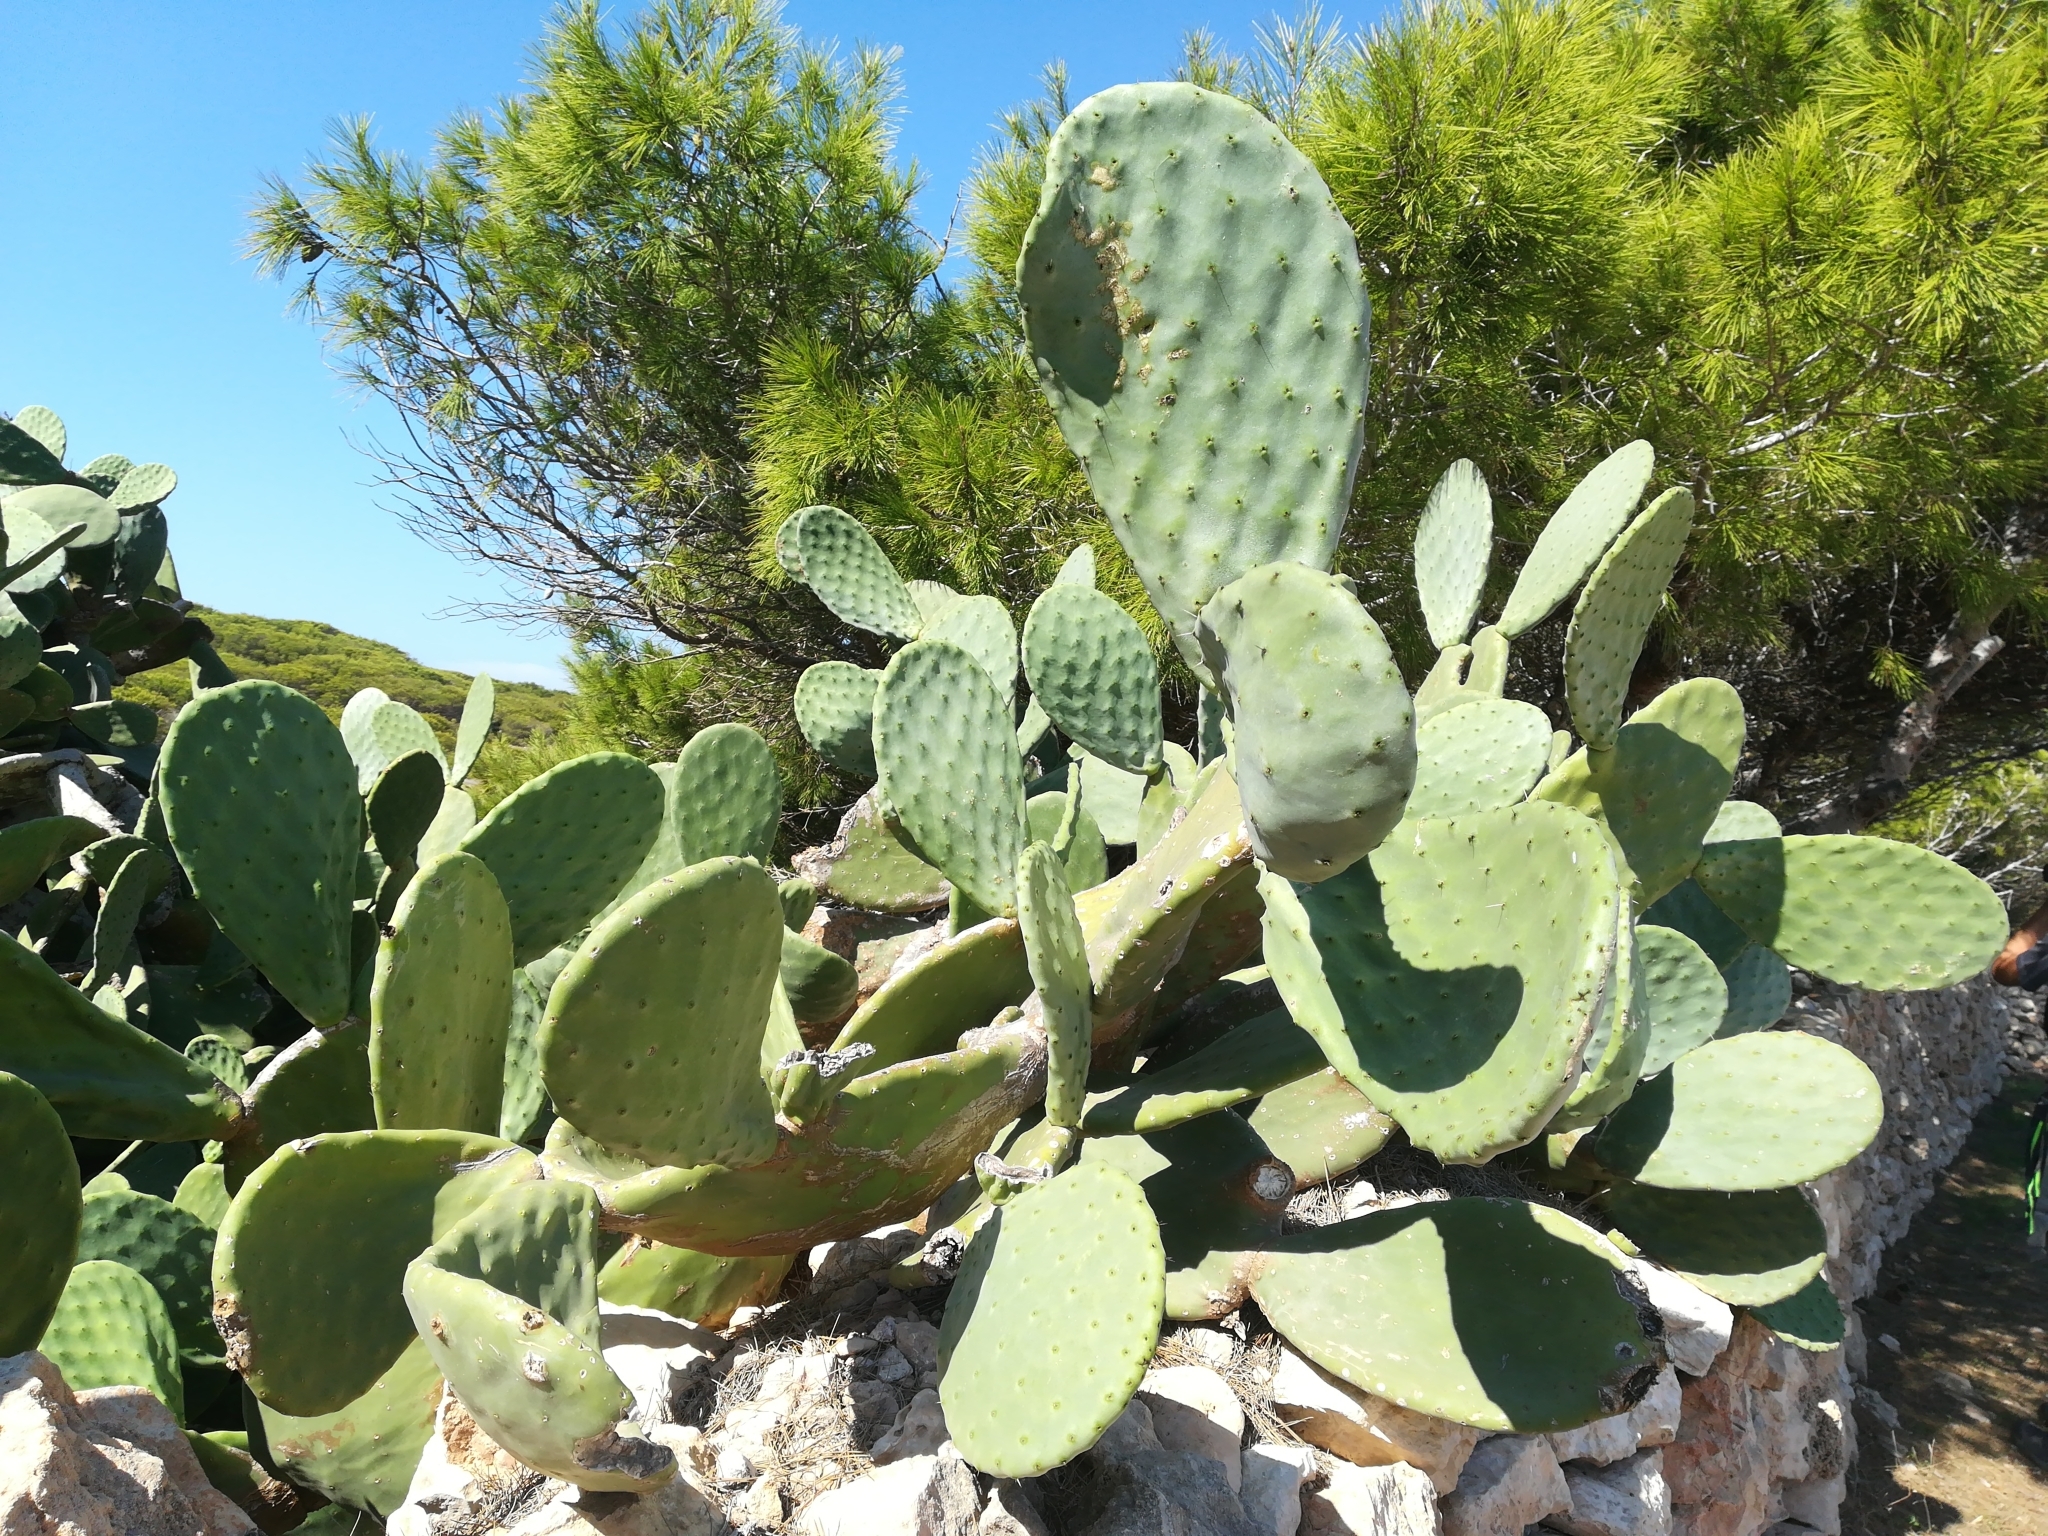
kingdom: Plantae
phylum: Tracheophyta
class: Magnoliopsida
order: Caryophyllales
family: Cactaceae
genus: Opuntia
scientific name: Opuntia ficus-indica
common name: Barbary fig
